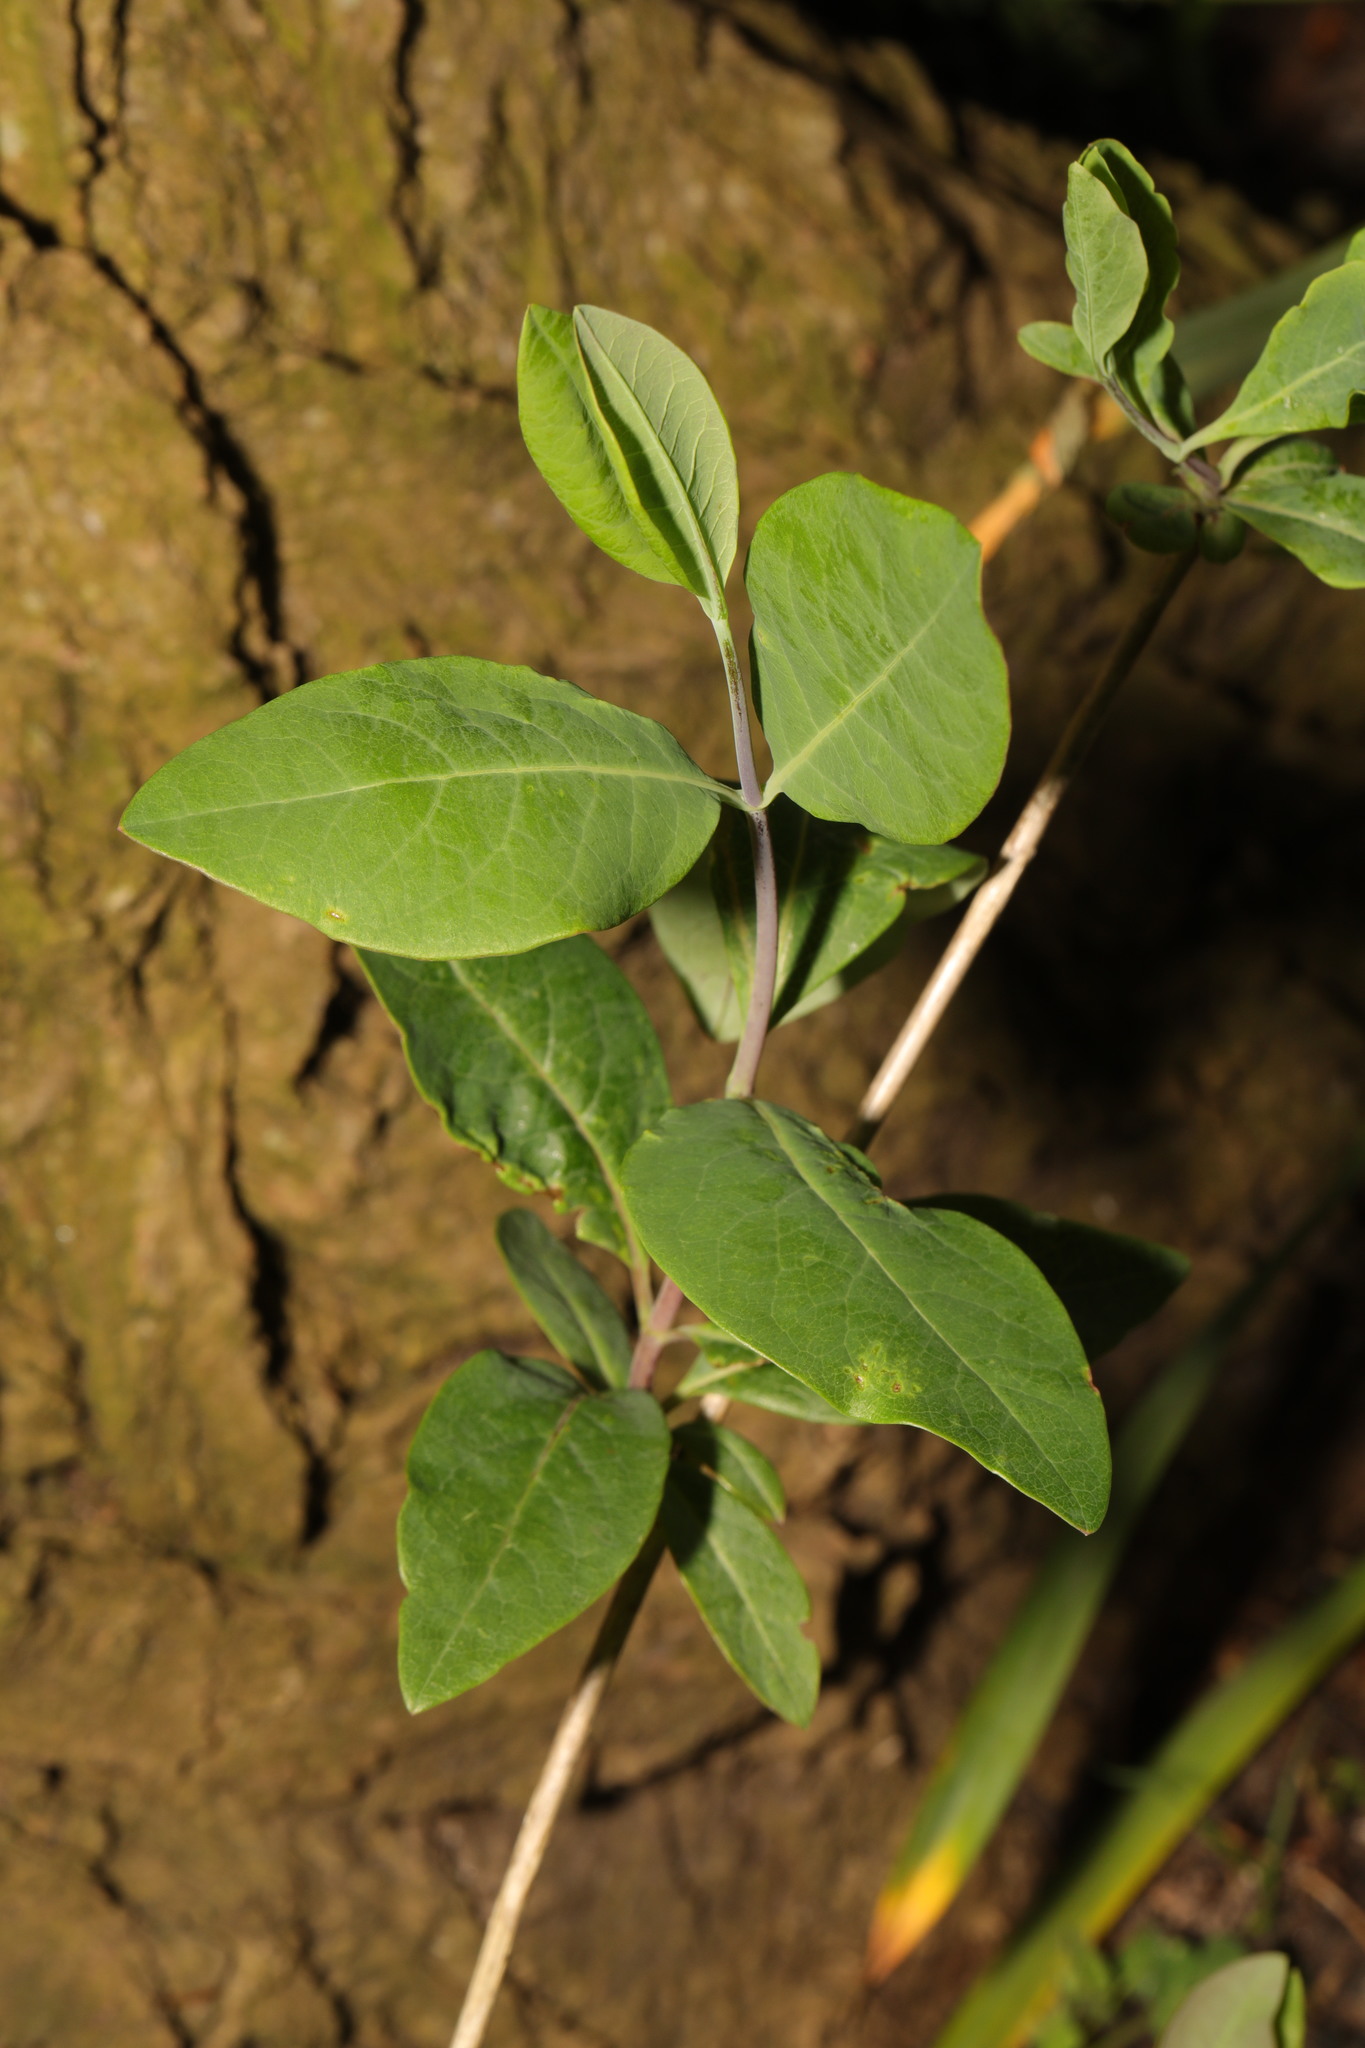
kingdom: Plantae
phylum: Tracheophyta
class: Magnoliopsida
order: Dipsacales
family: Caprifoliaceae
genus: Lonicera
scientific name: Lonicera periclymenum
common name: European honeysuckle
